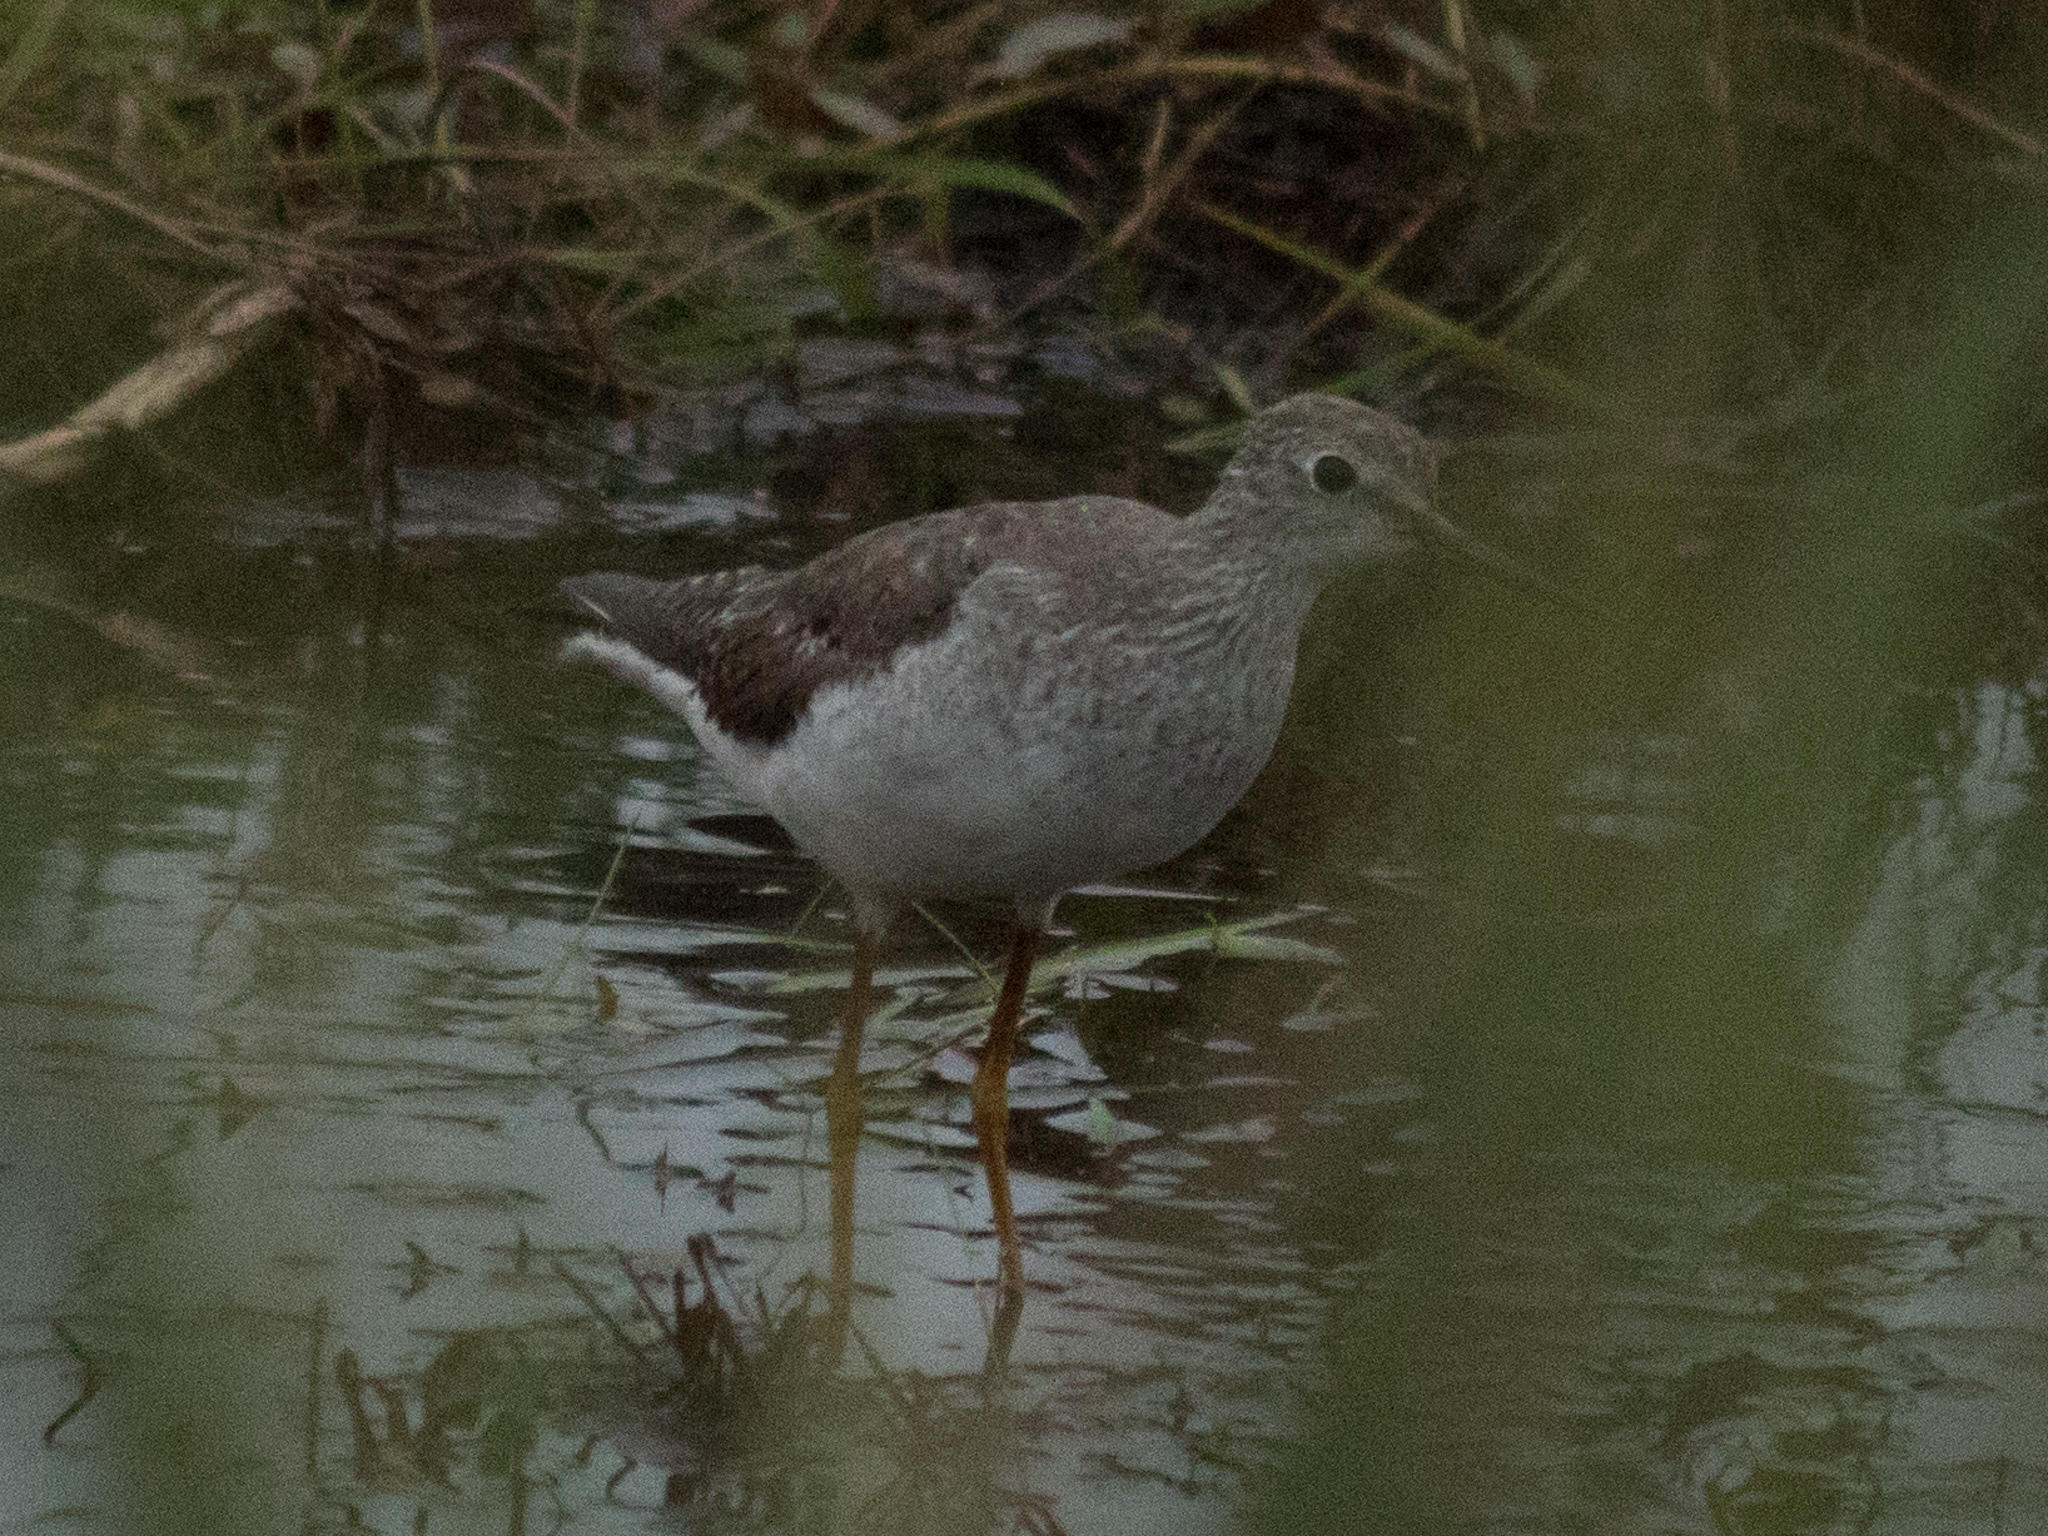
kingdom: Animalia
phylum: Chordata
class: Aves
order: Charadriiformes
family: Scolopacidae
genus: Tringa
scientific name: Tringa solitaria
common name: Solitary sandpiper
